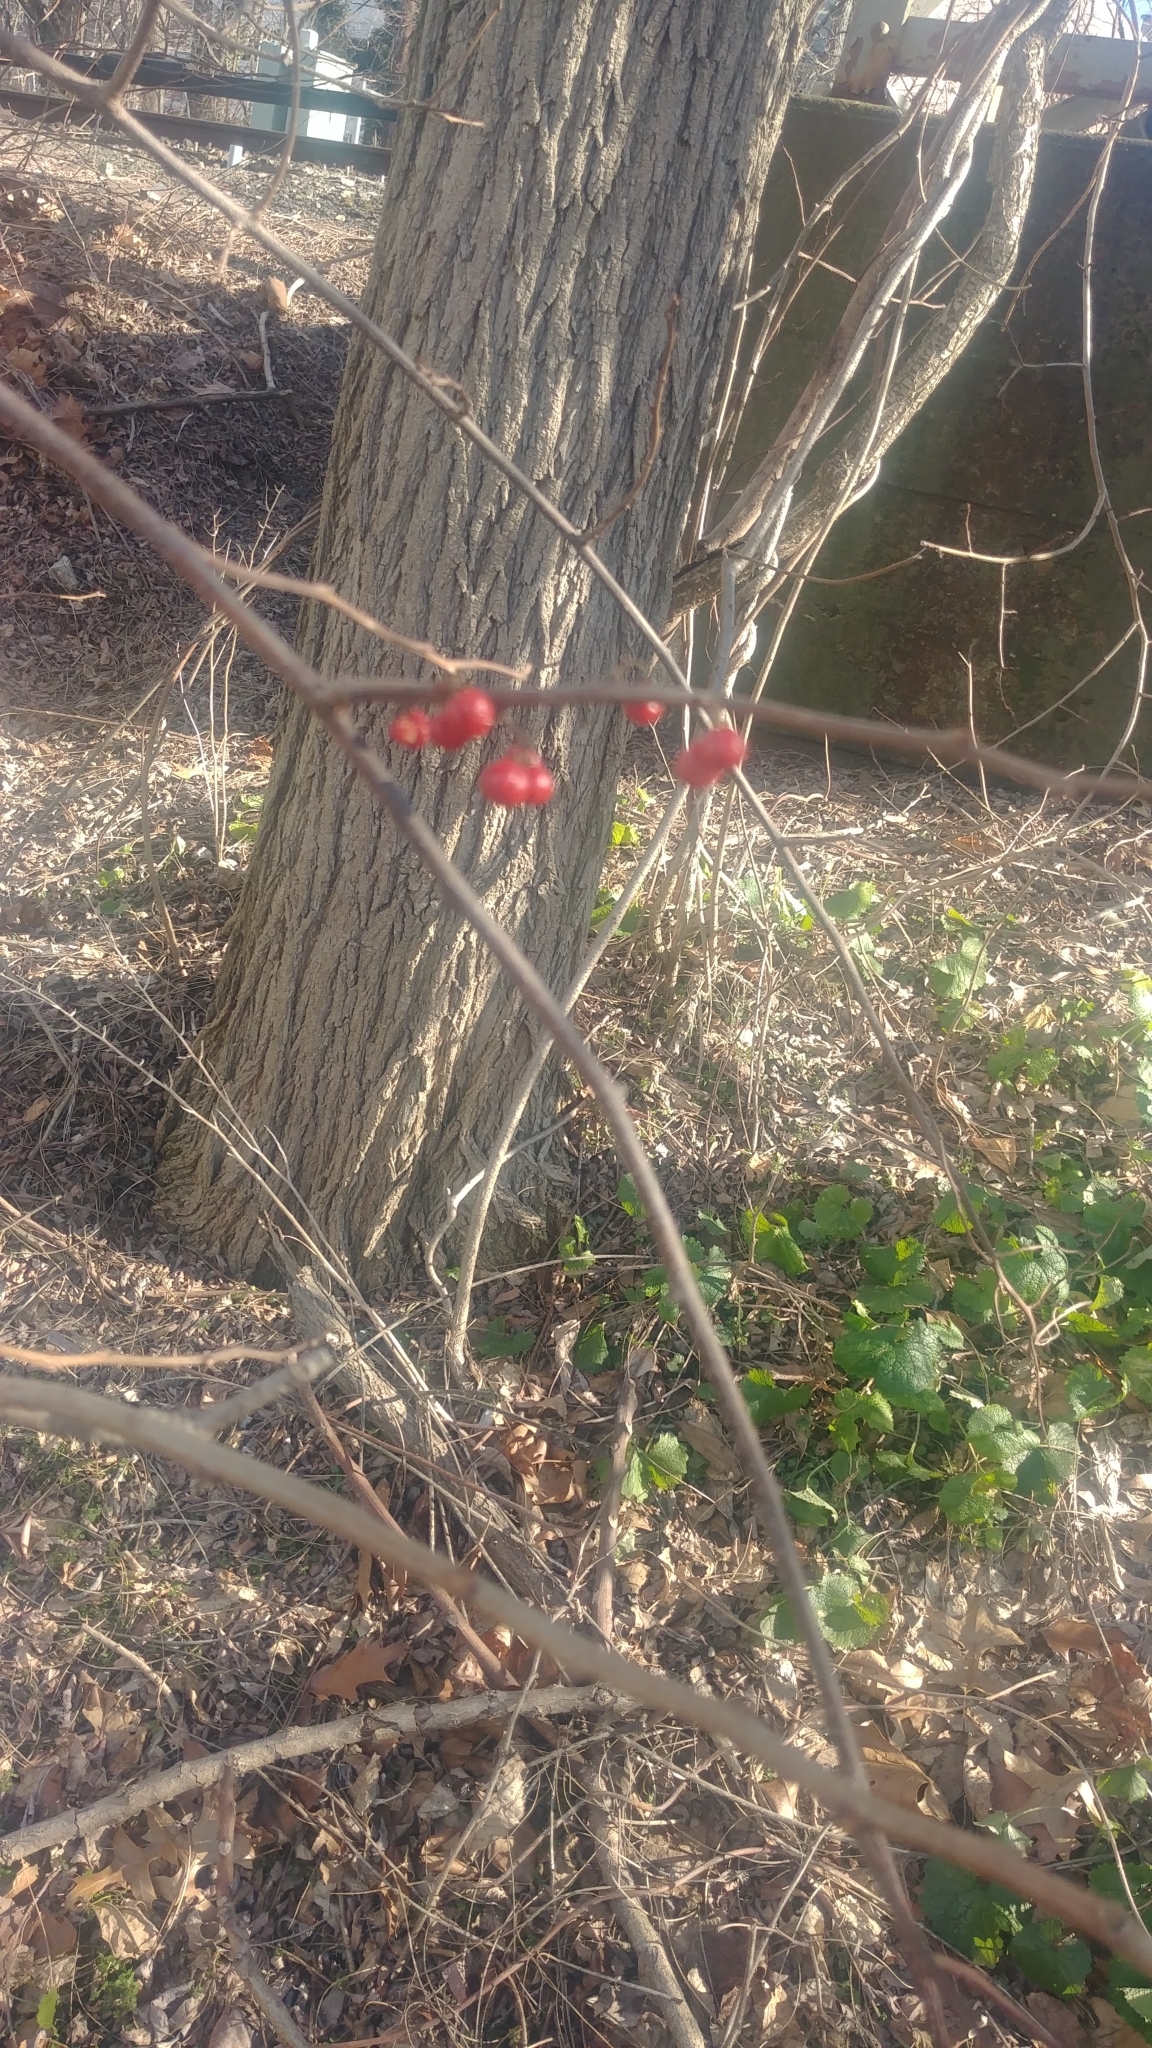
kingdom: Plantae
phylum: Tracheophyta
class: Magnoliopsida
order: Celastrales
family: Celastraceae
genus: Celastrus
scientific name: Celastrus orbiculatus
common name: Oriental bittersweet
